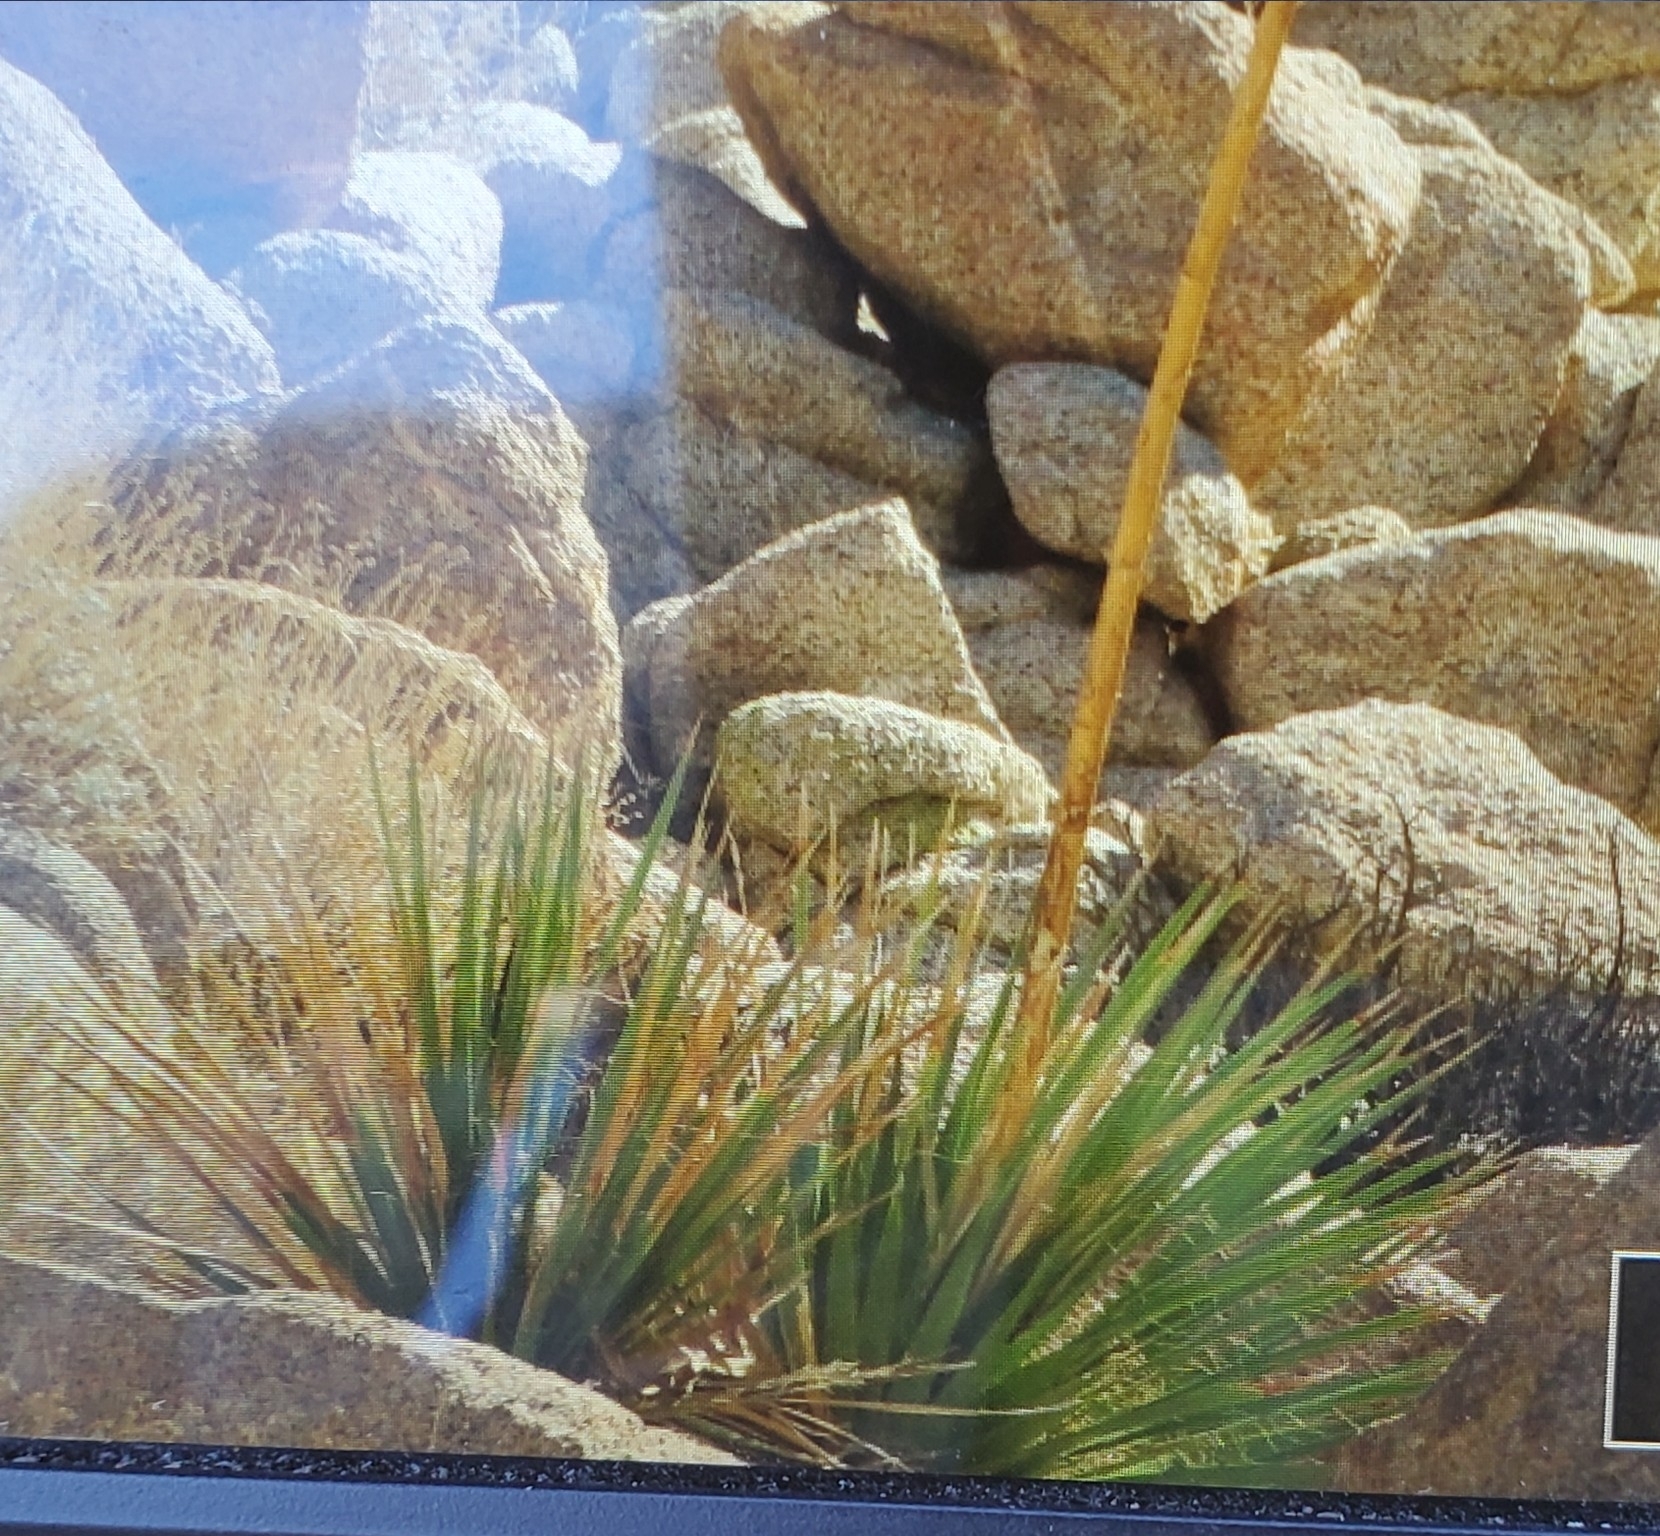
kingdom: Plantae
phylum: Tracheophyta
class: Liliopsida
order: Asparagales
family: Asparagaceae
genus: Nolina
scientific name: Nolina bigelovii
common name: Bigelow bear-grass
